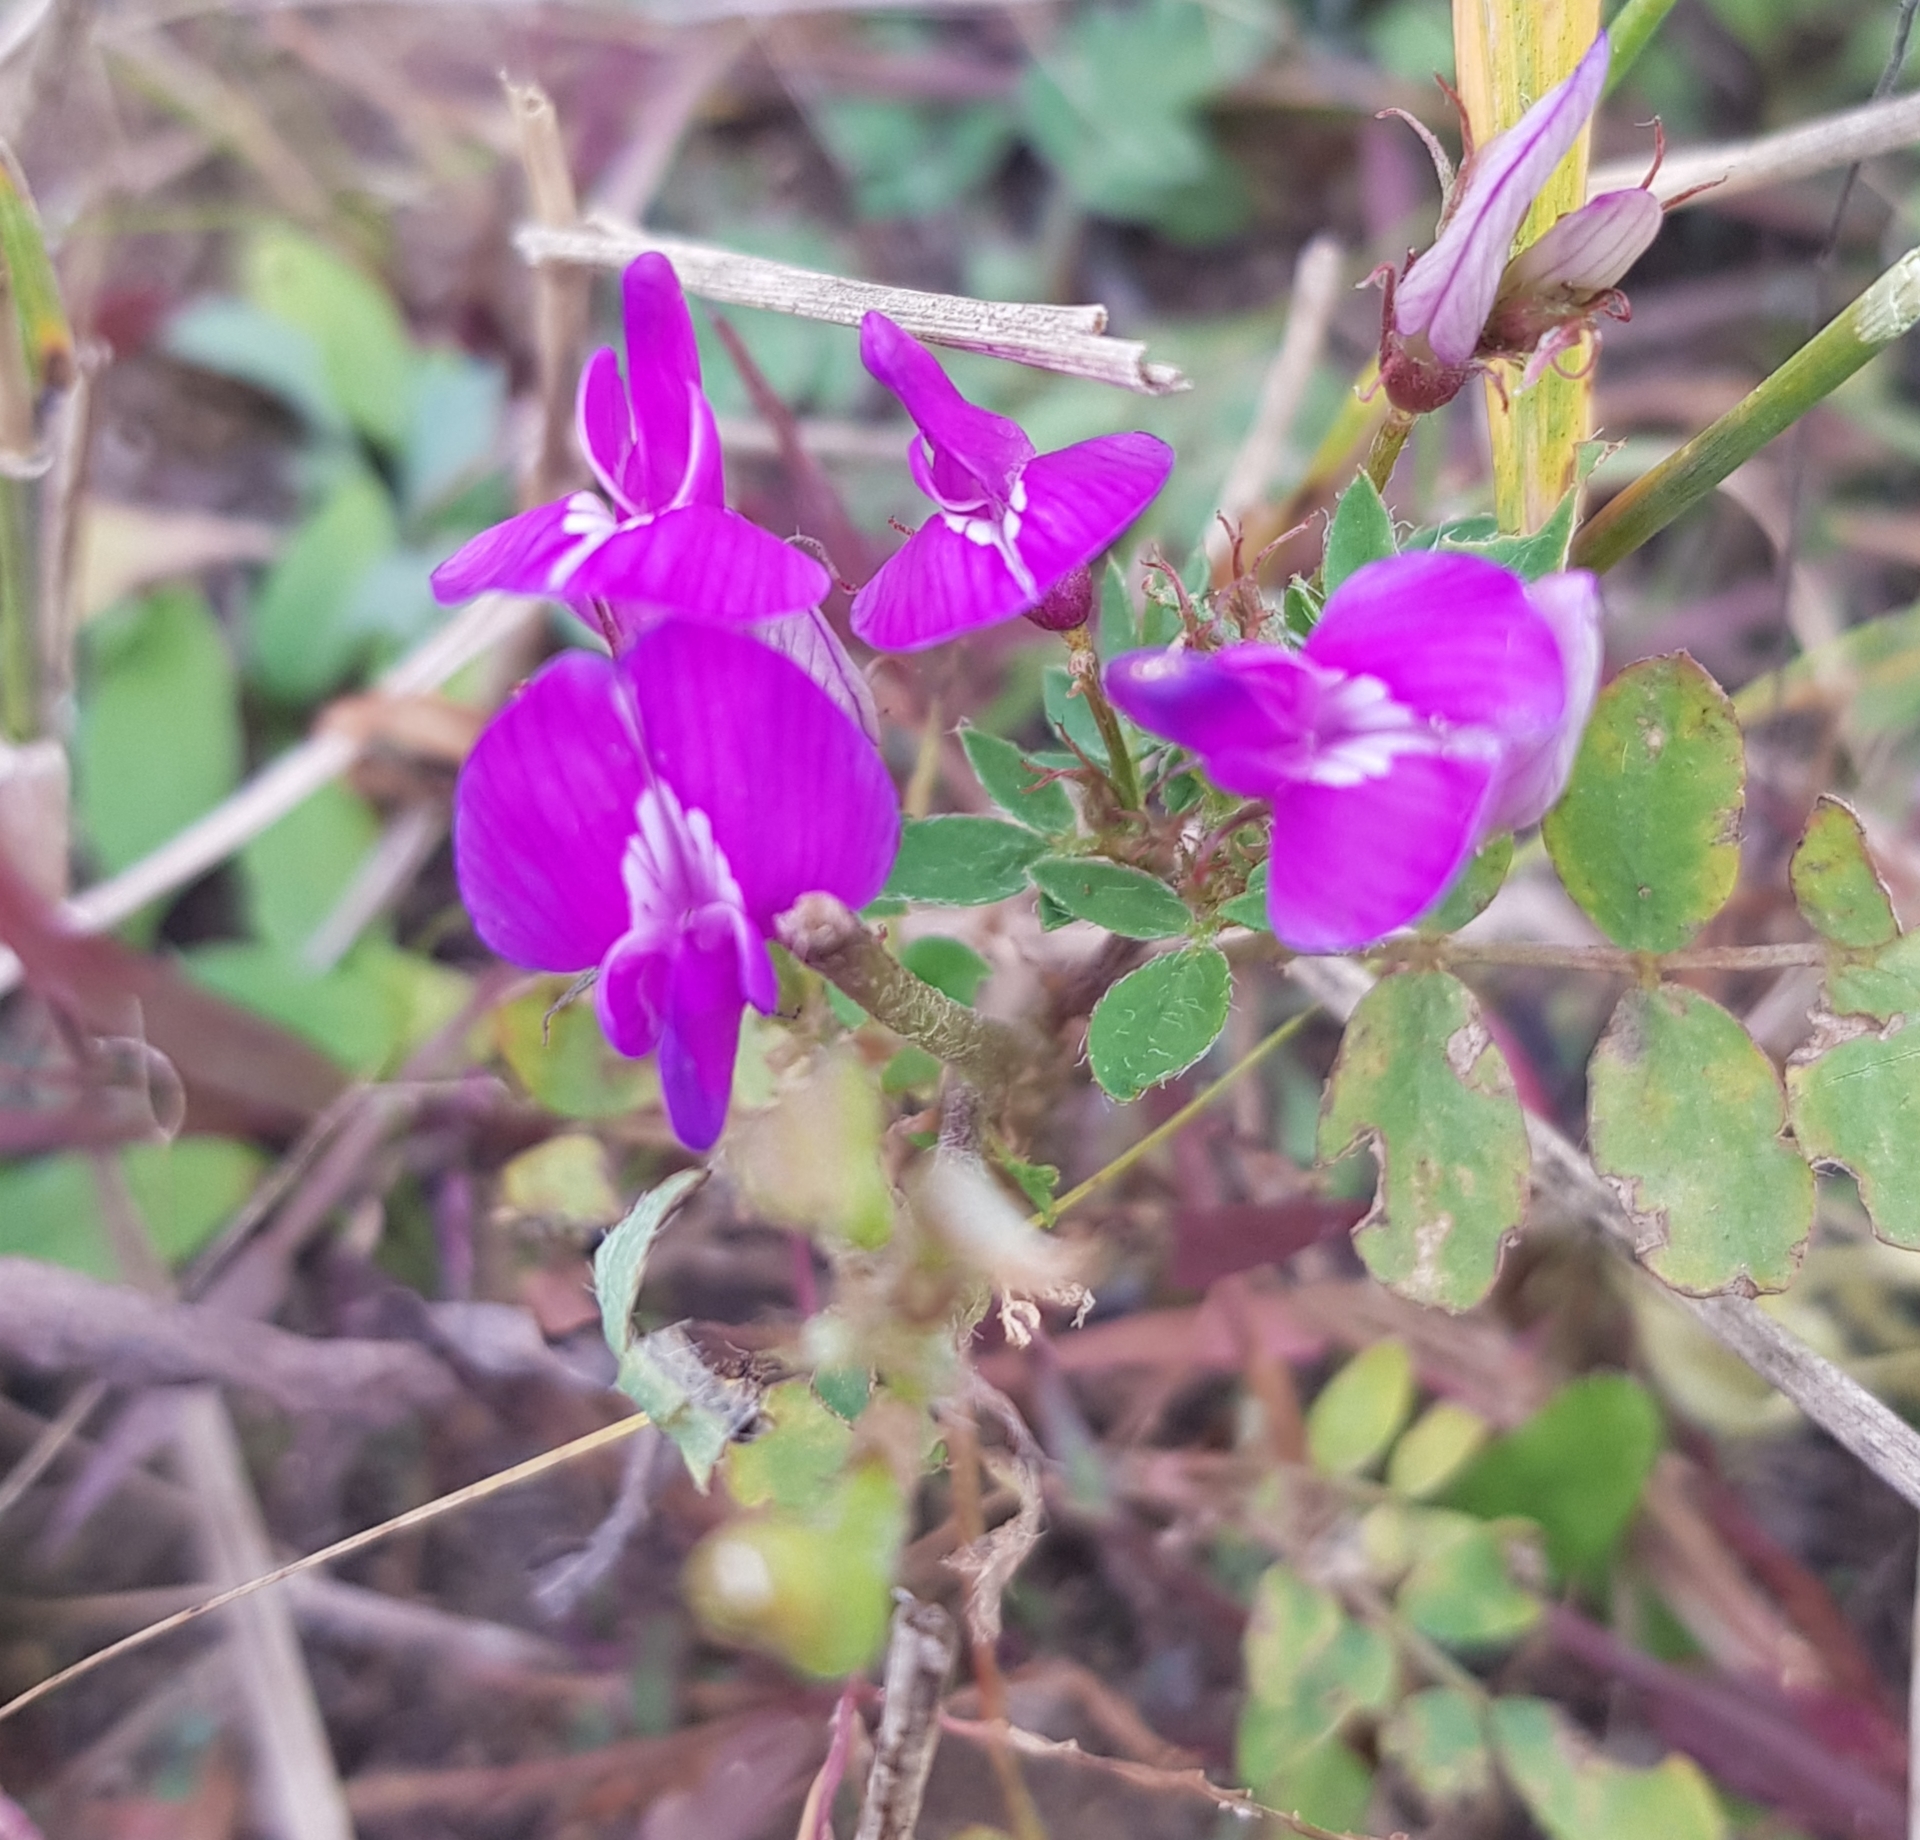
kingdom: Plantae
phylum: Tracheophyta
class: Magnoliopsida
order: Fabales
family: Fabaceae
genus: Astragalus
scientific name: Astragalus davuricus
